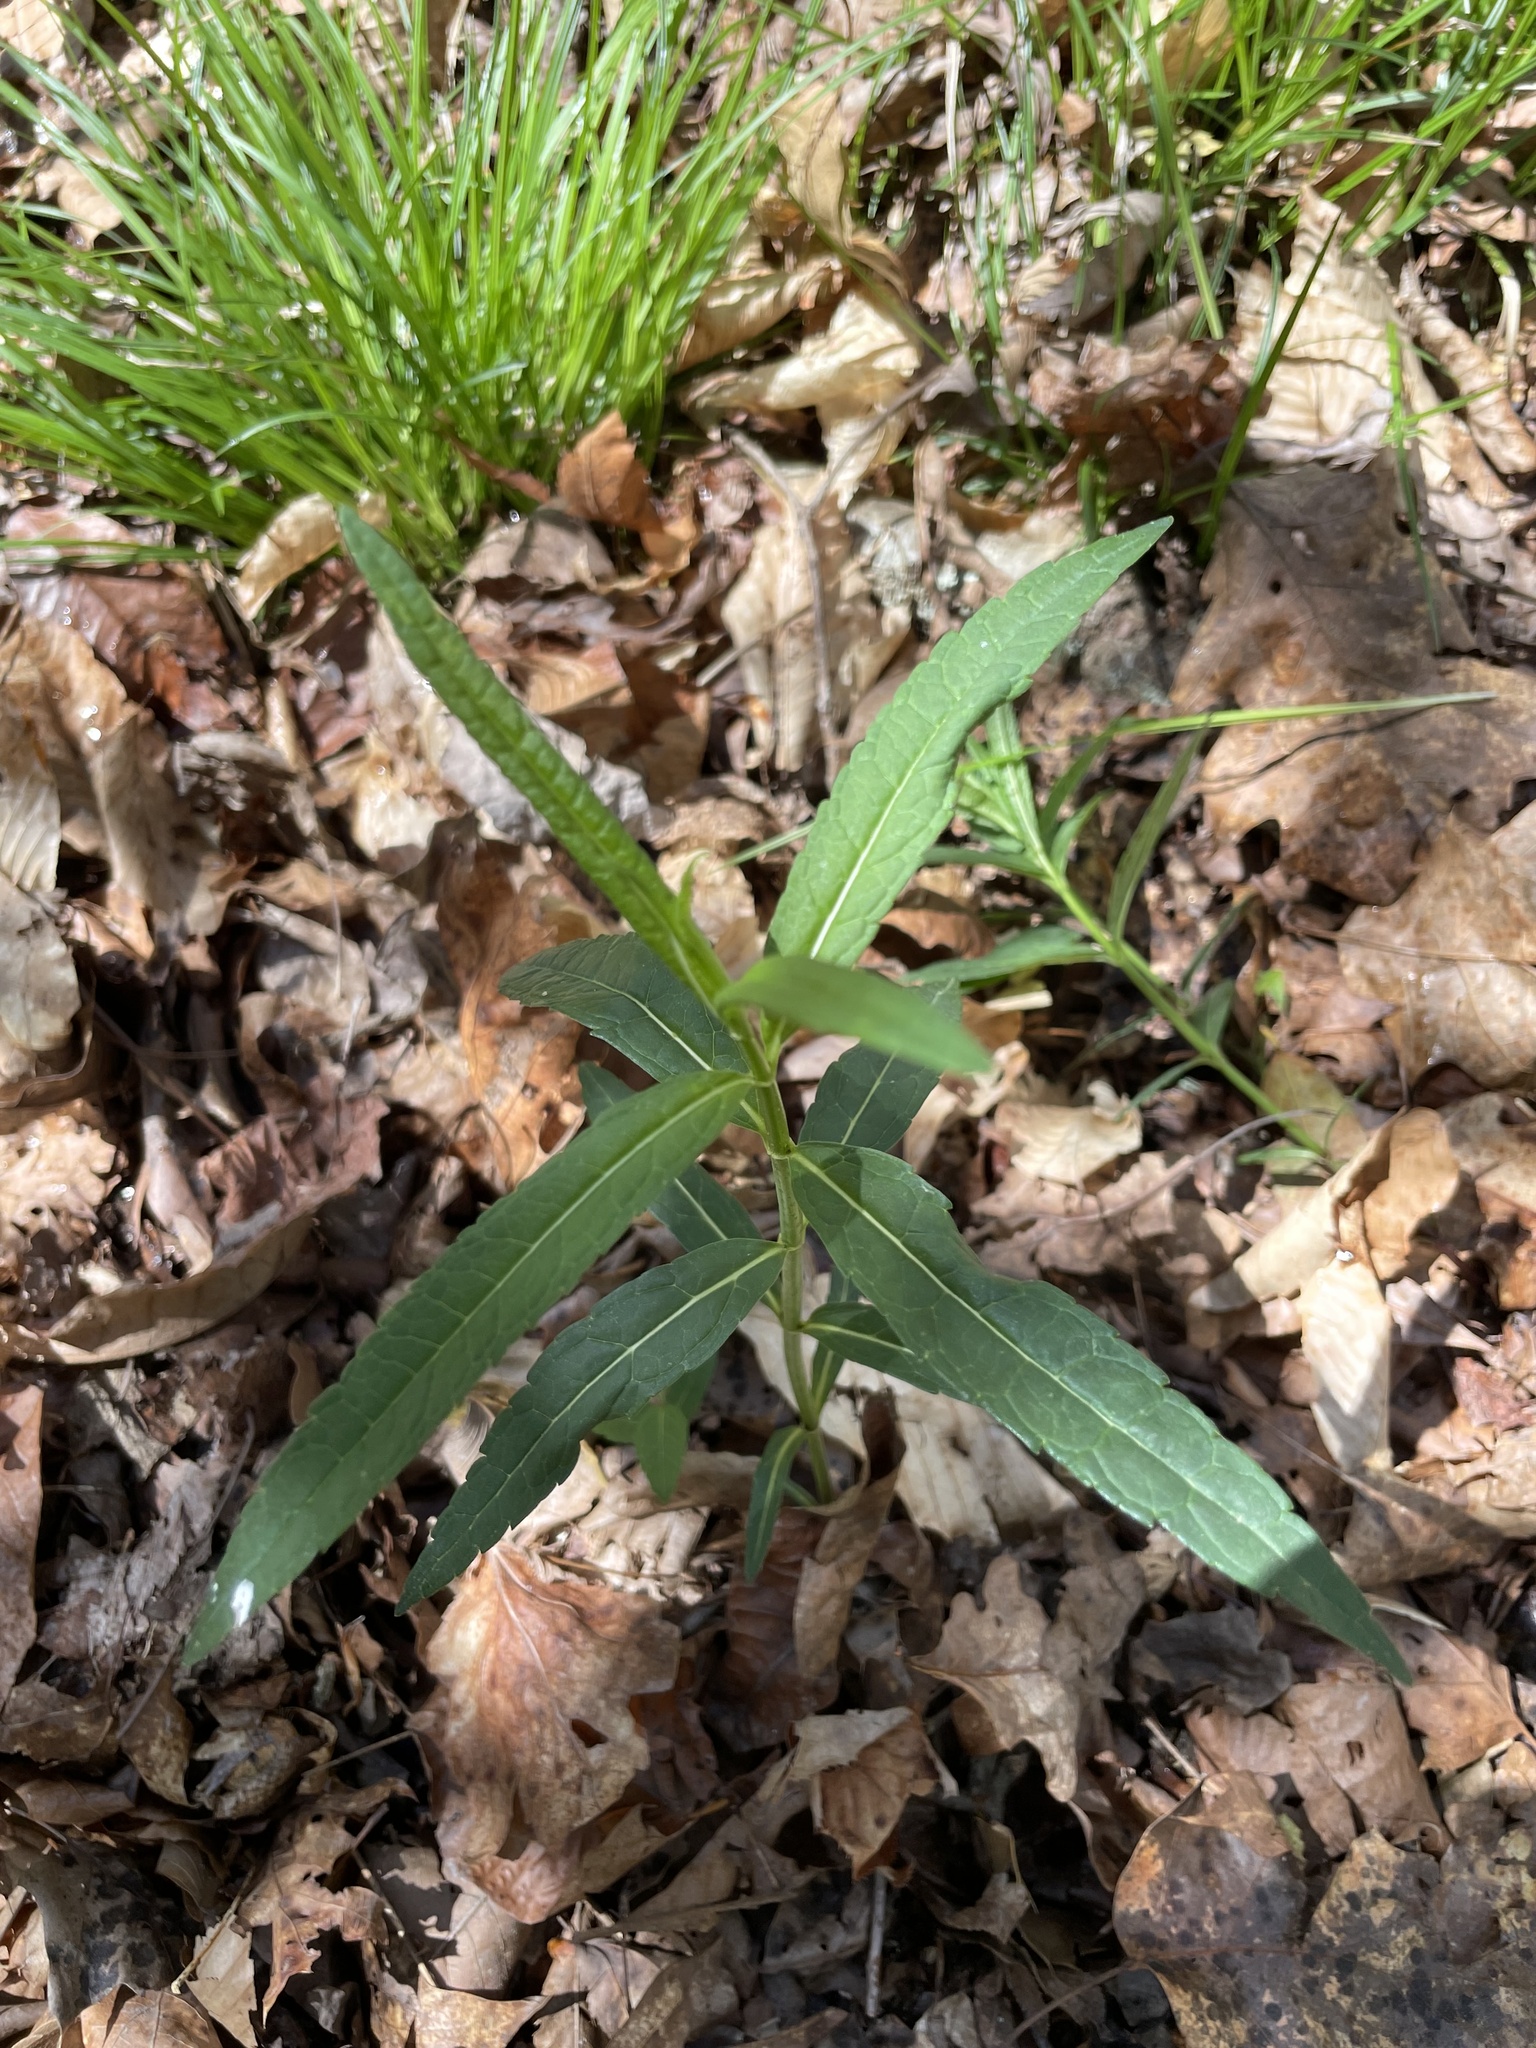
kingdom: Plantae
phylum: Tracheophyta
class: Magnoliopsida
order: Lamiales
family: Plantaginaceae
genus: Chelone
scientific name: Chelone glabra
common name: Snakehead
